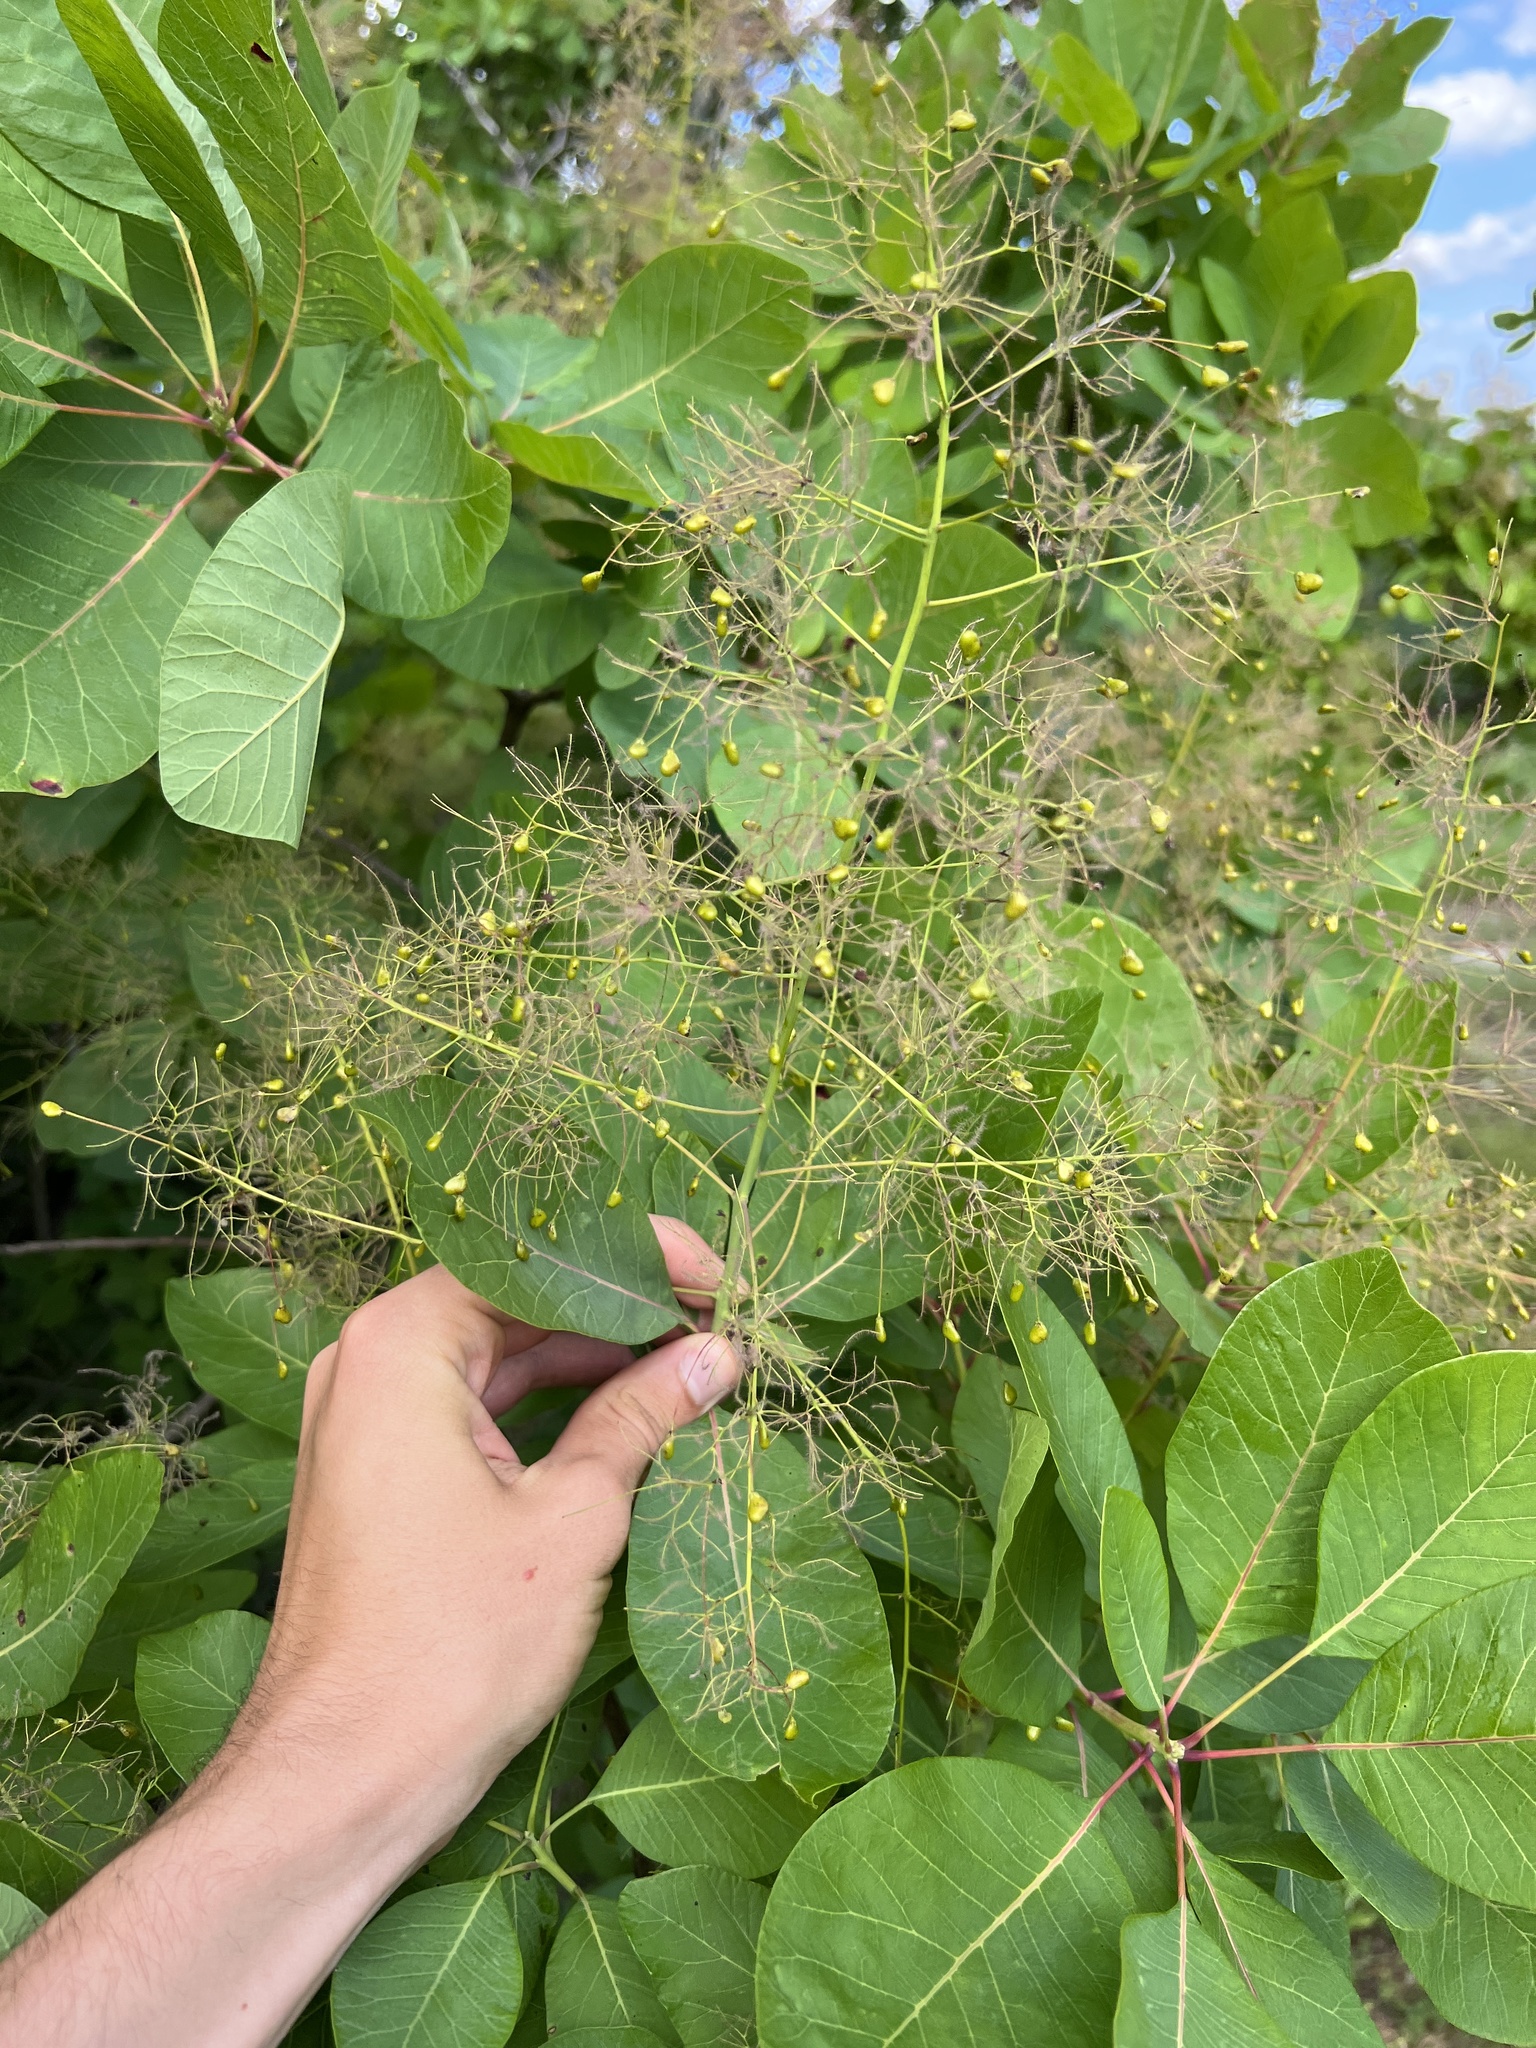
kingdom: Plantae
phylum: Tracheophyta
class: Magnoliopsida
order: Sapindales
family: Anacardiaceae
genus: Cotinus
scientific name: Cotinus obovatus
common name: Chittamwood
